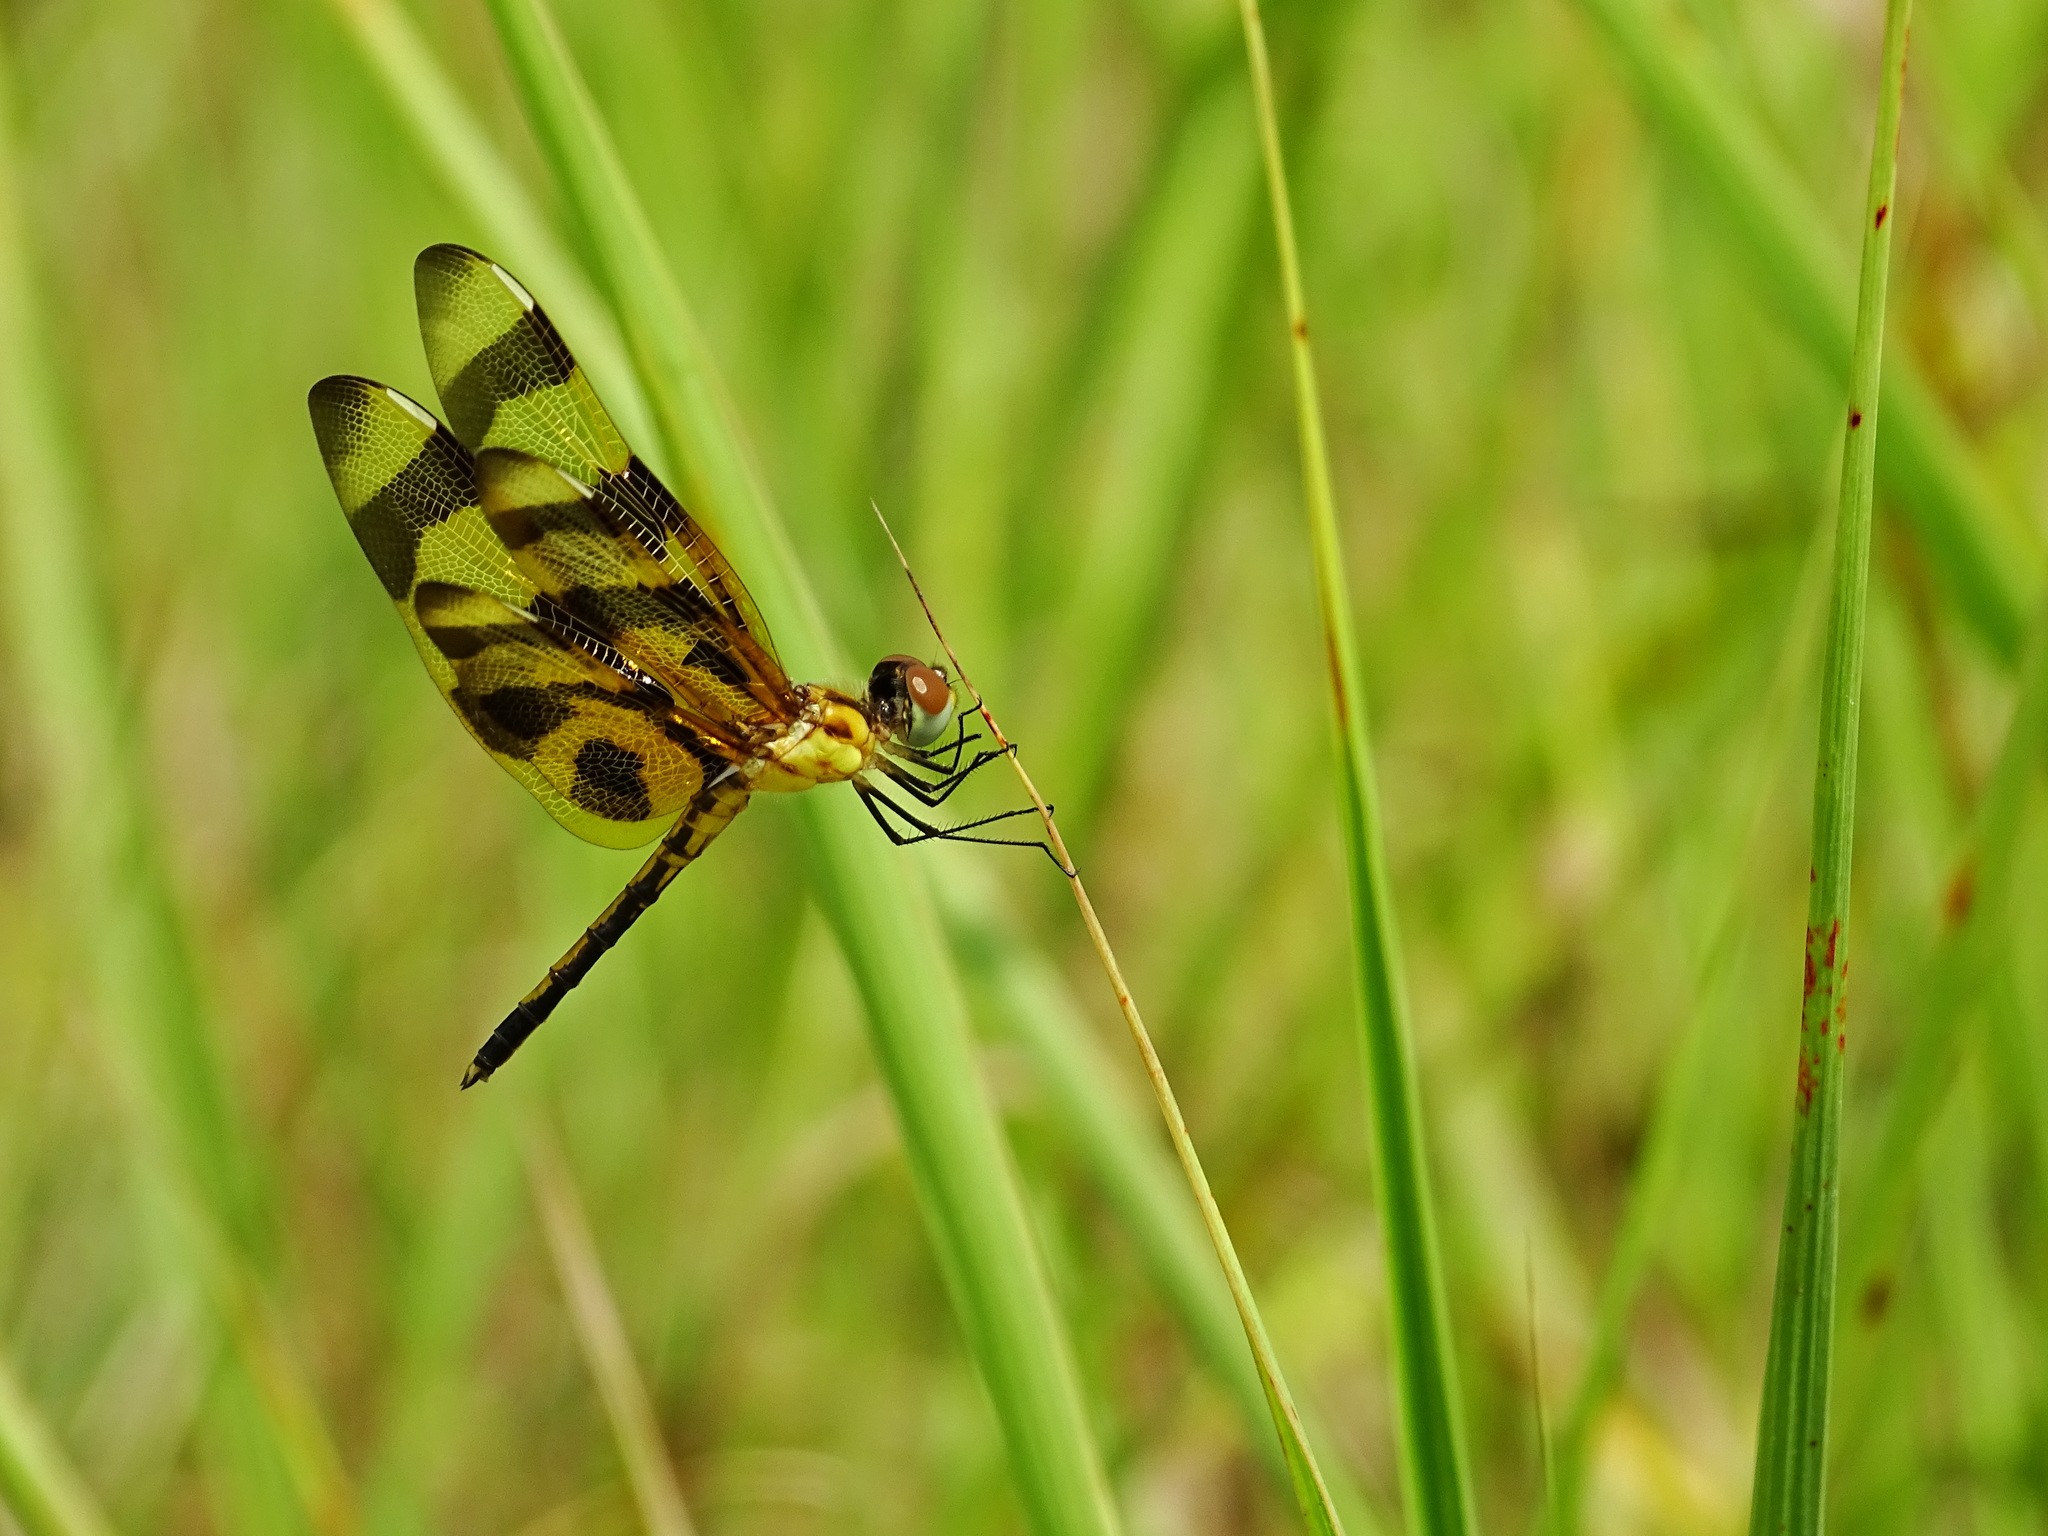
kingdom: Animalia
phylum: Arthropoda
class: Insecta
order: Odonata
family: Libellulidae
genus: Celithemis
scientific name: Celithemis eponina
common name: Halloween pennant
